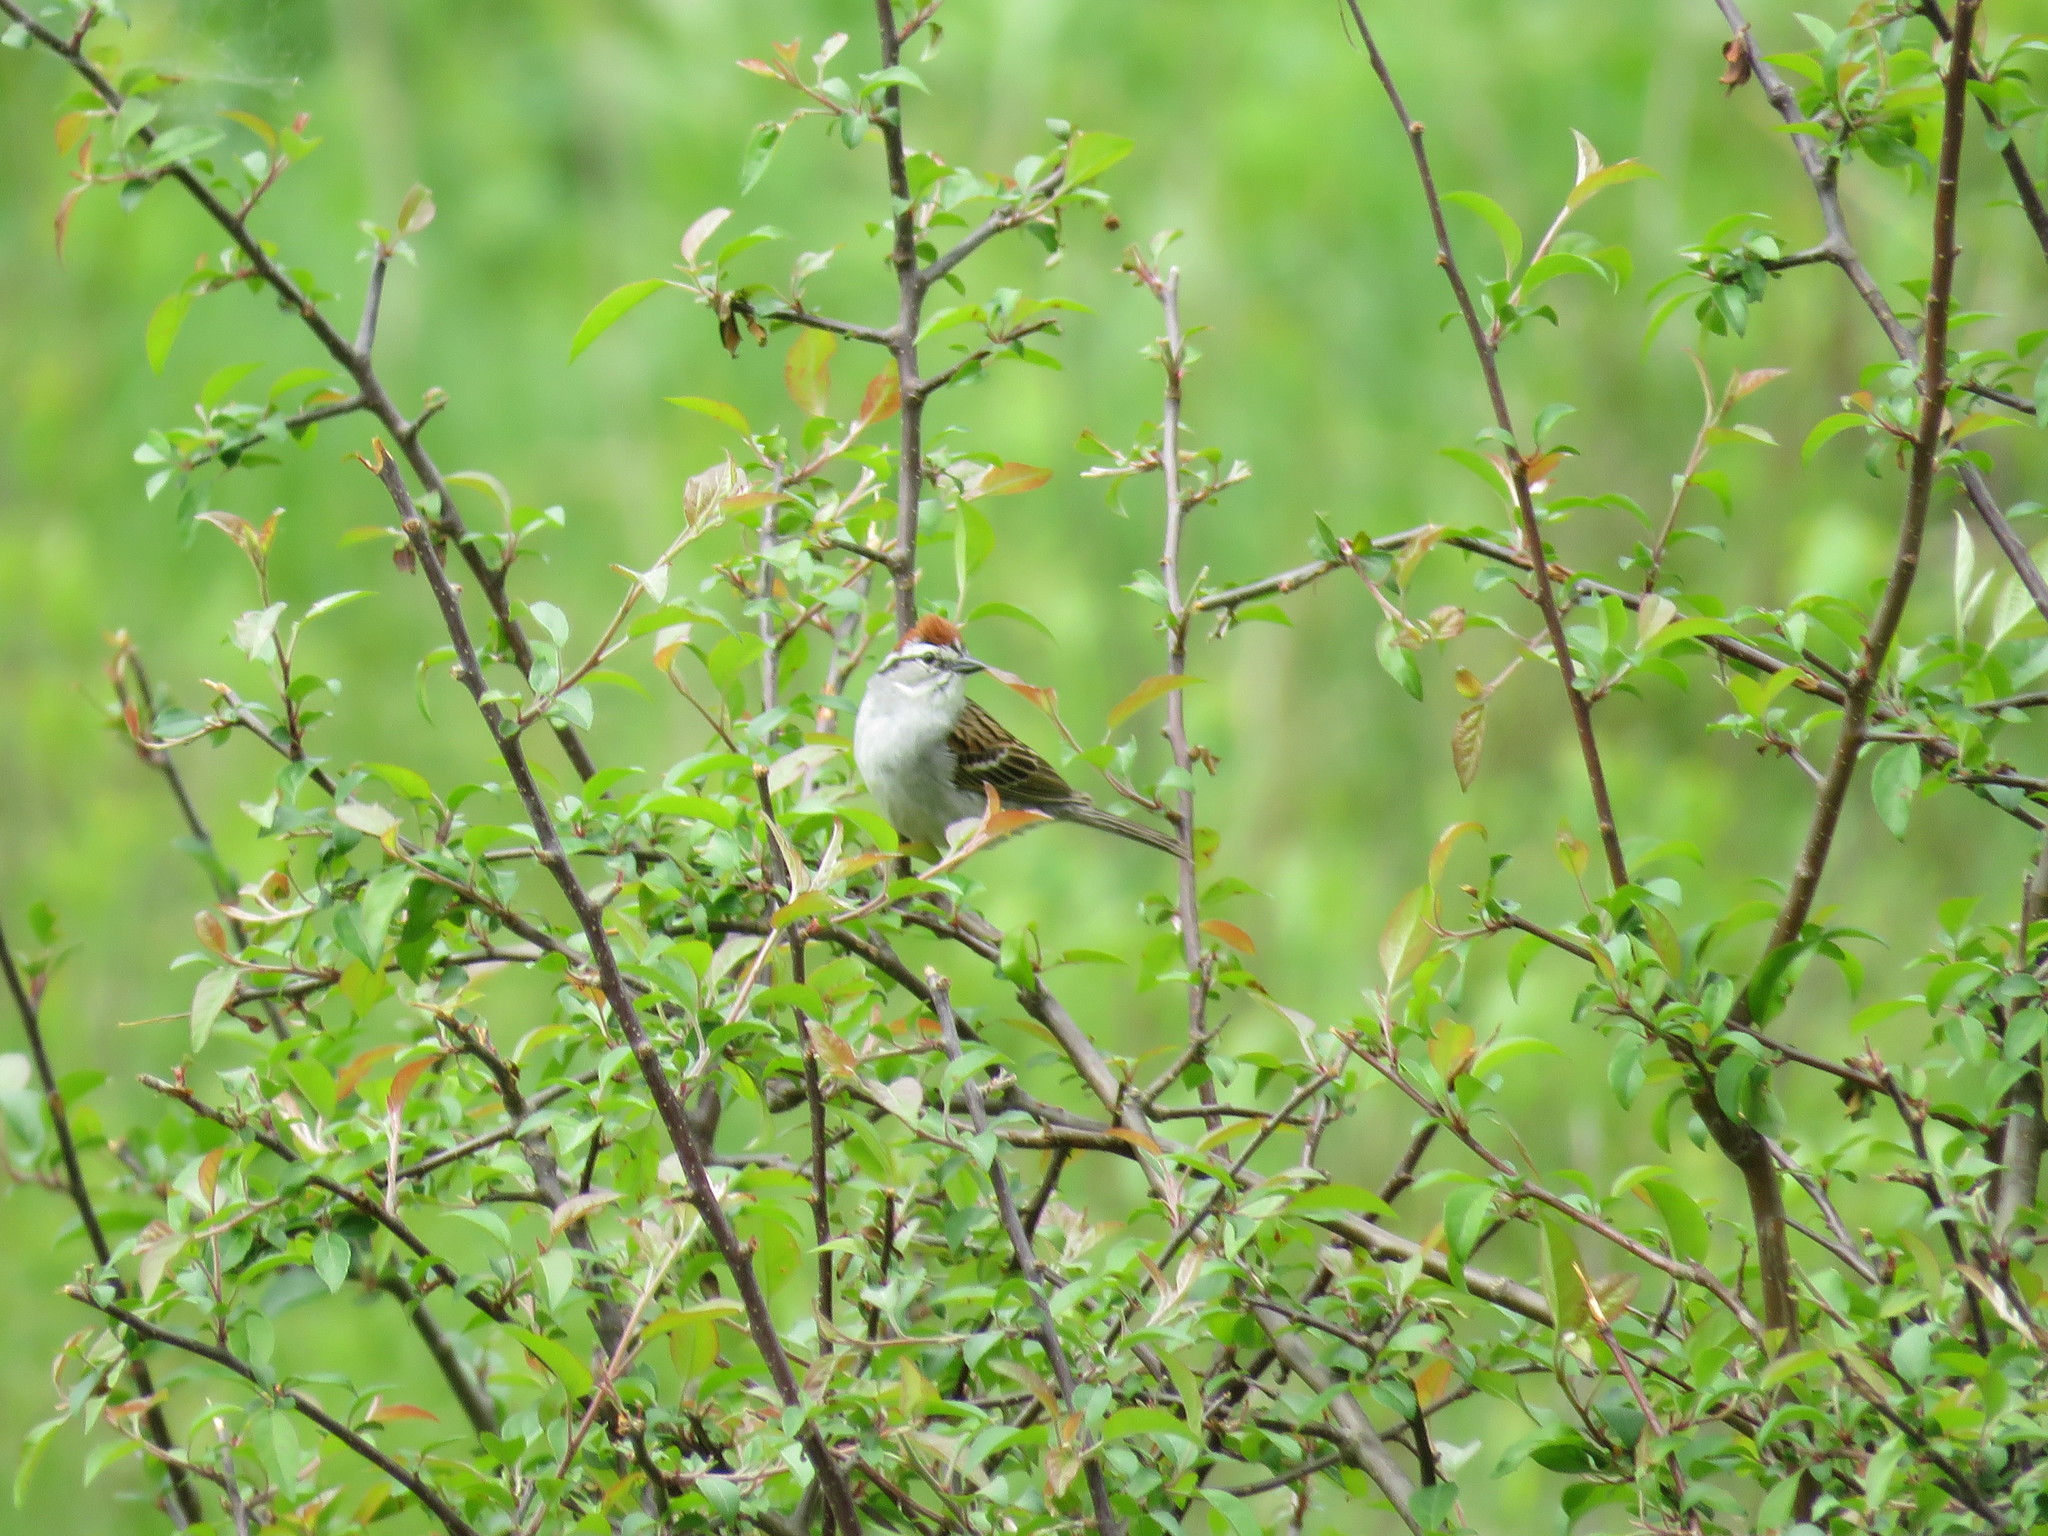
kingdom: Animalia
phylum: Chordata
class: Aves
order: Passeriformes
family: Passerellidae
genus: Spizella
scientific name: Spizella passerina
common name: Chipping sparrow
